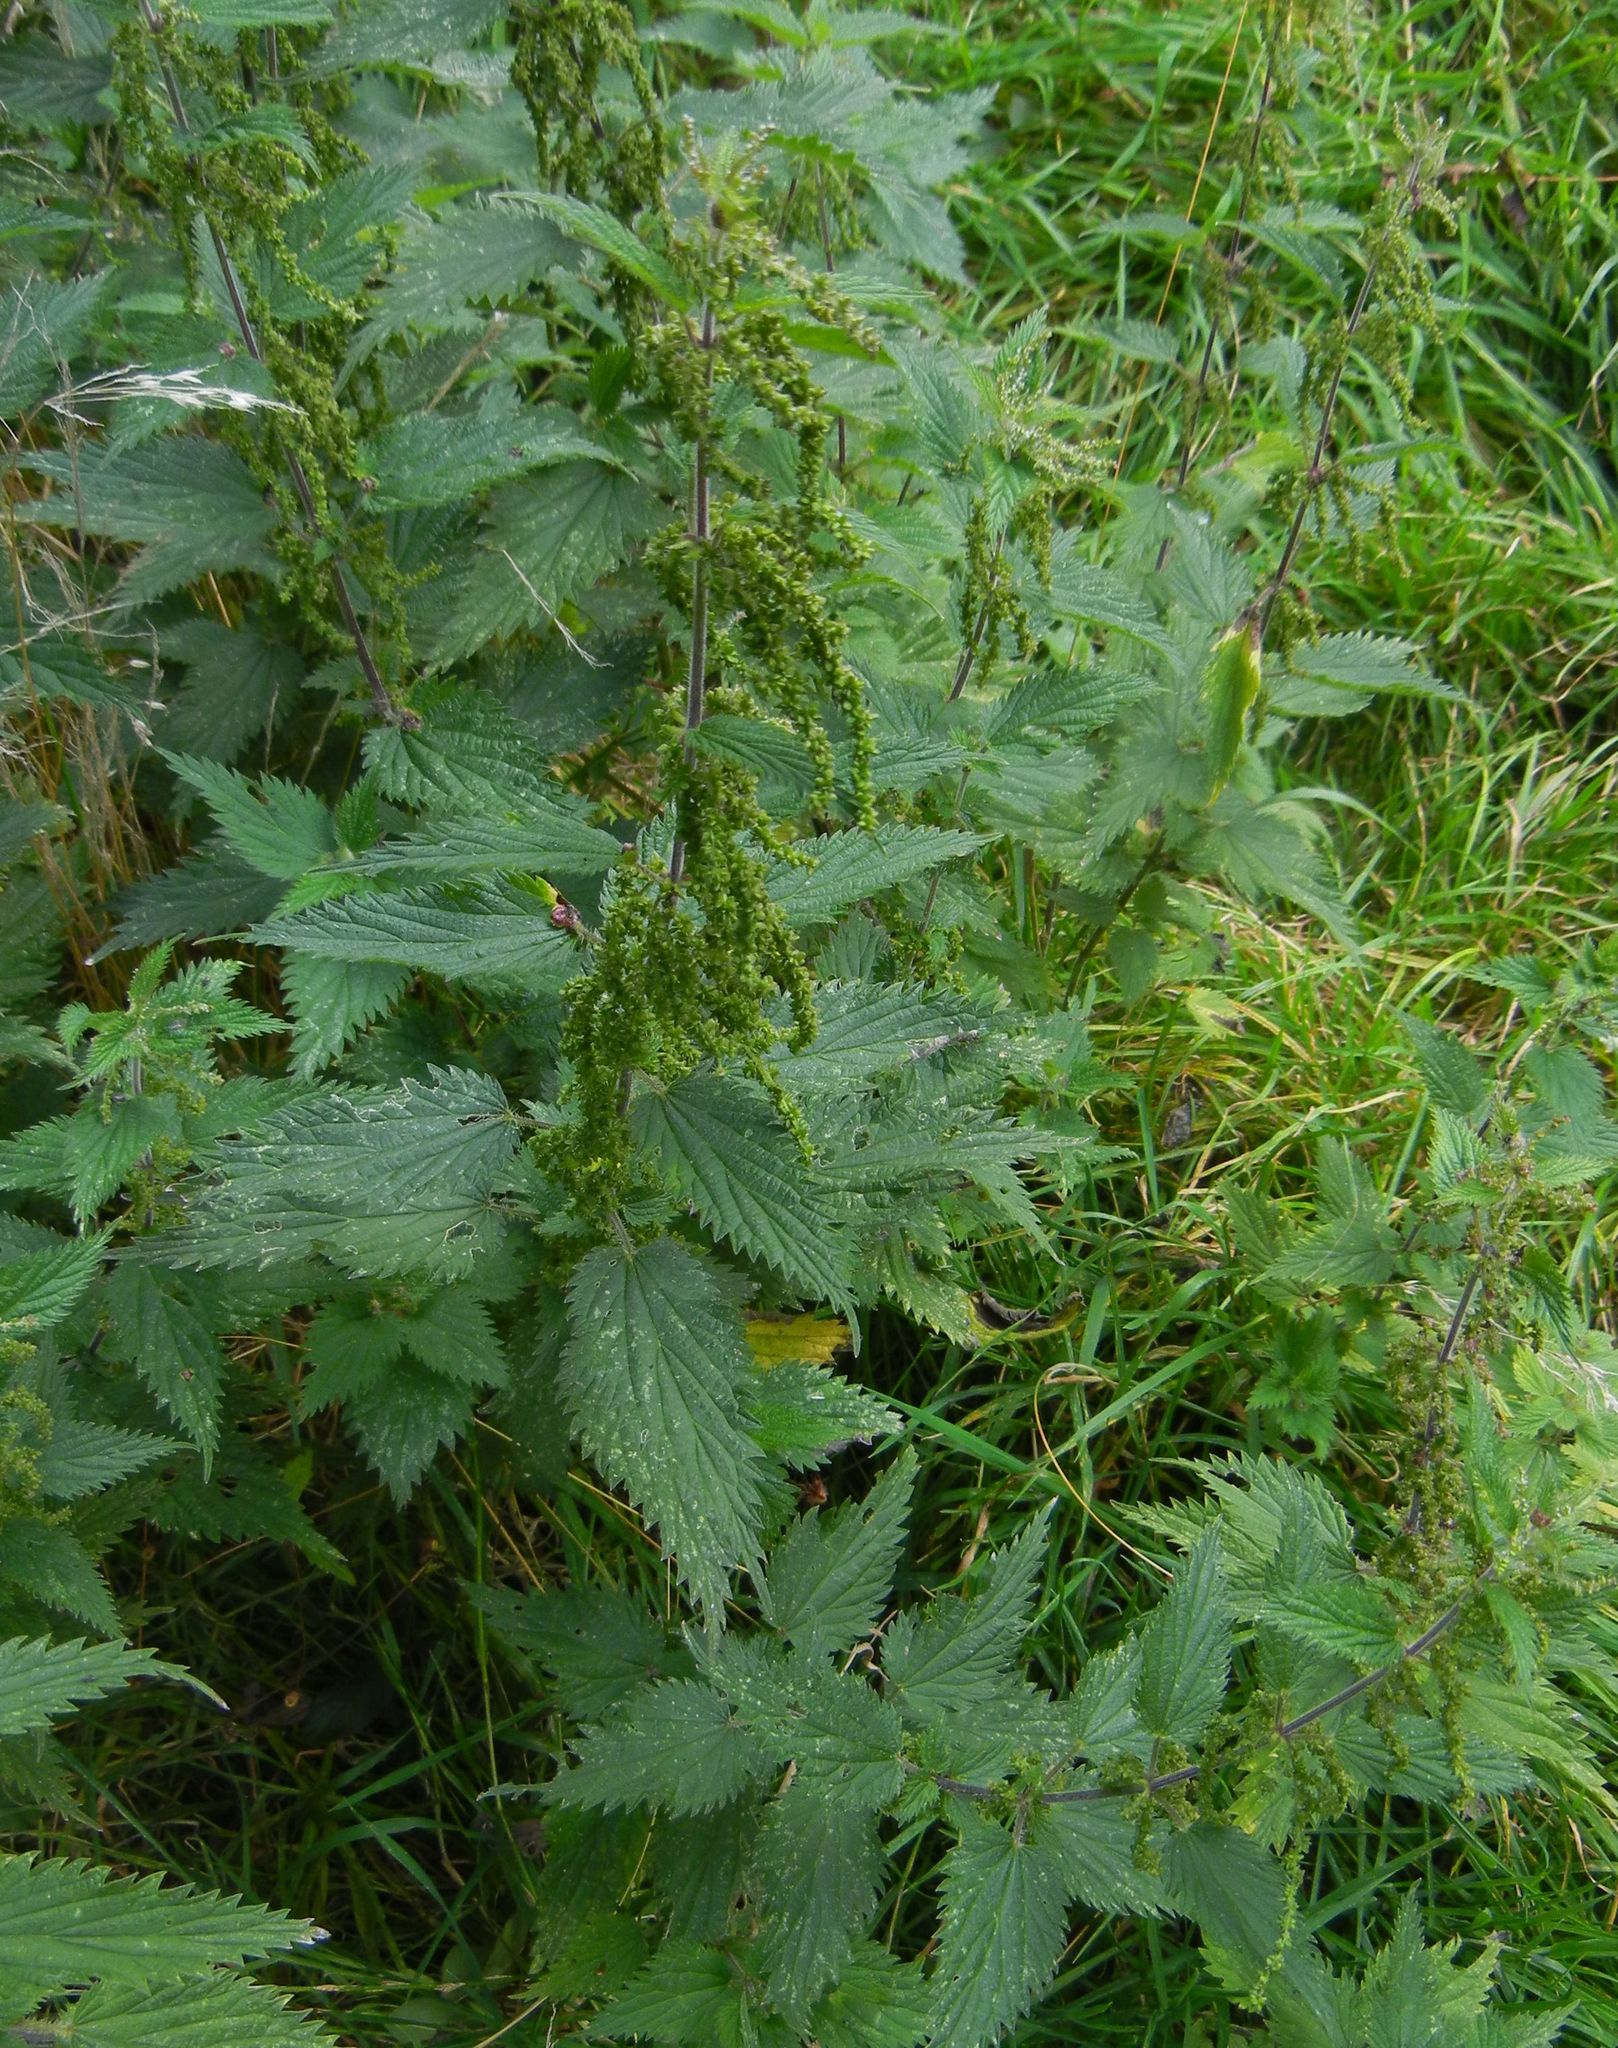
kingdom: Plantae
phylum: Tracheophyta
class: Magnoliopsida
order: Rosales
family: Urticaceae
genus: Urtica
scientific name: Urtica dioica
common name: Common nettle
